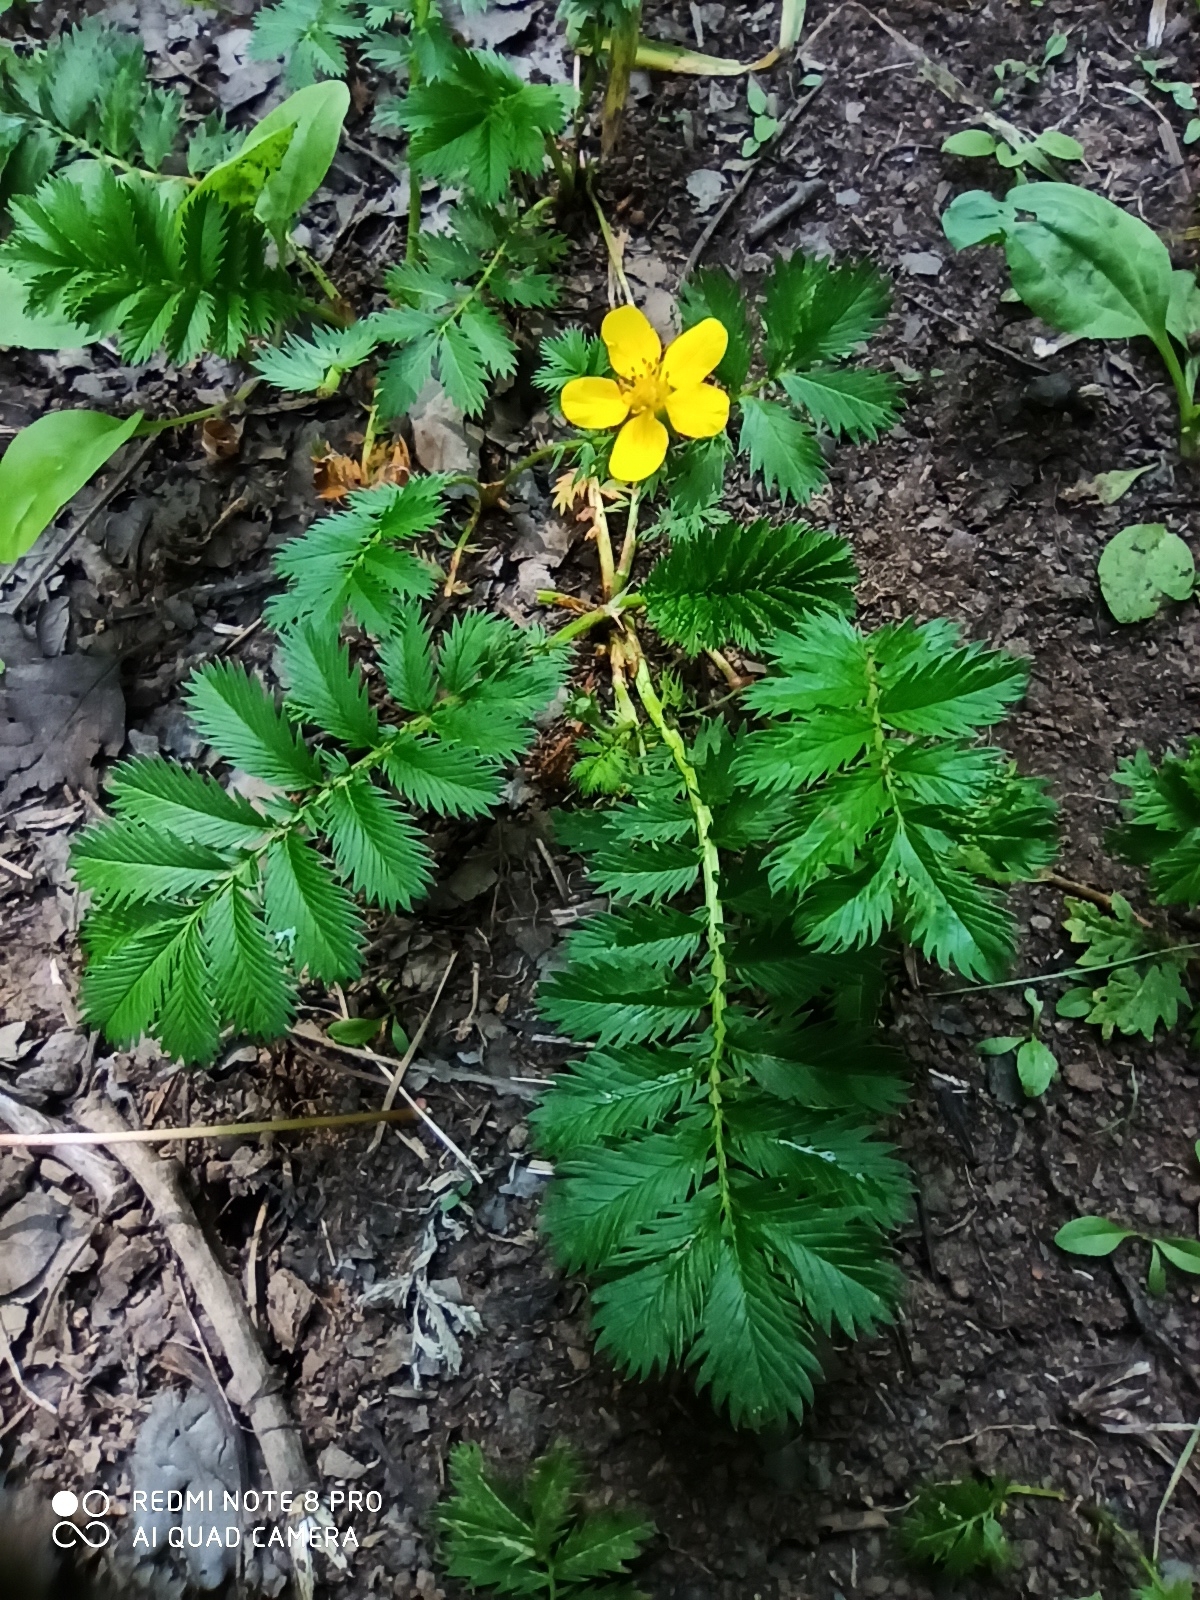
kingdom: Plantae
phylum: Tracheophyta
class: Magnoliopsida
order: Rosales
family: Rosaceae
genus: Argentina
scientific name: Argentina anserina
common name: Common silverweed
